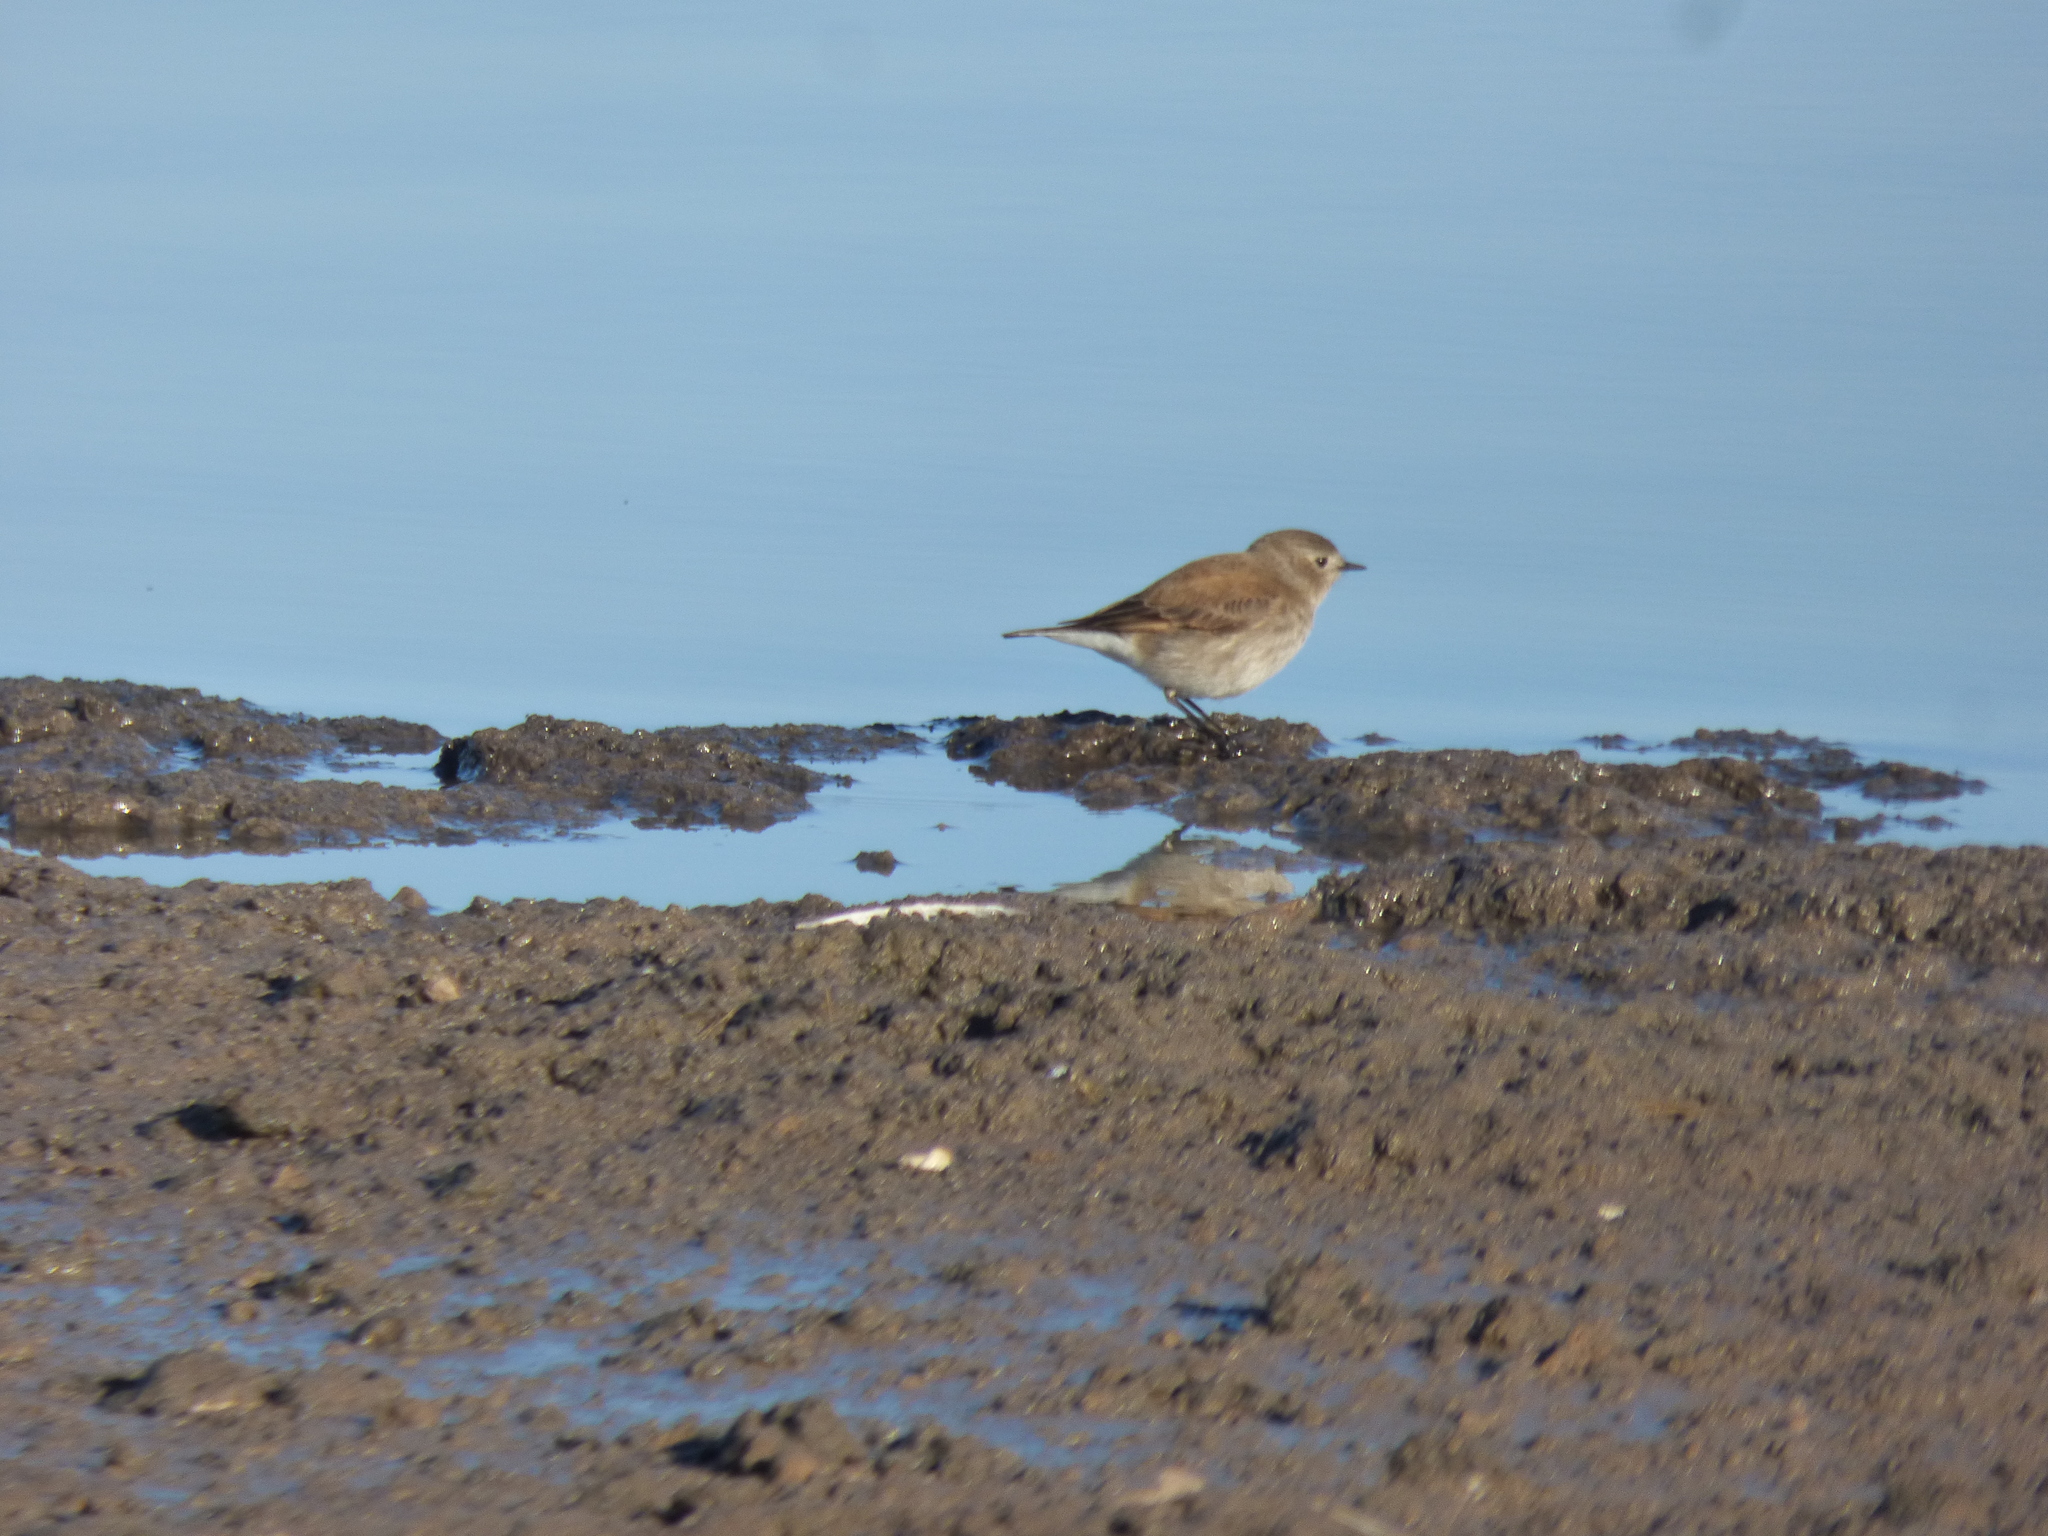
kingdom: Animalia
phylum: Chordata
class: Aves
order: Passeriformes
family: Tyrannidae
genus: Lessonia
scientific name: Lessonia rufa
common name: Austral negrito
